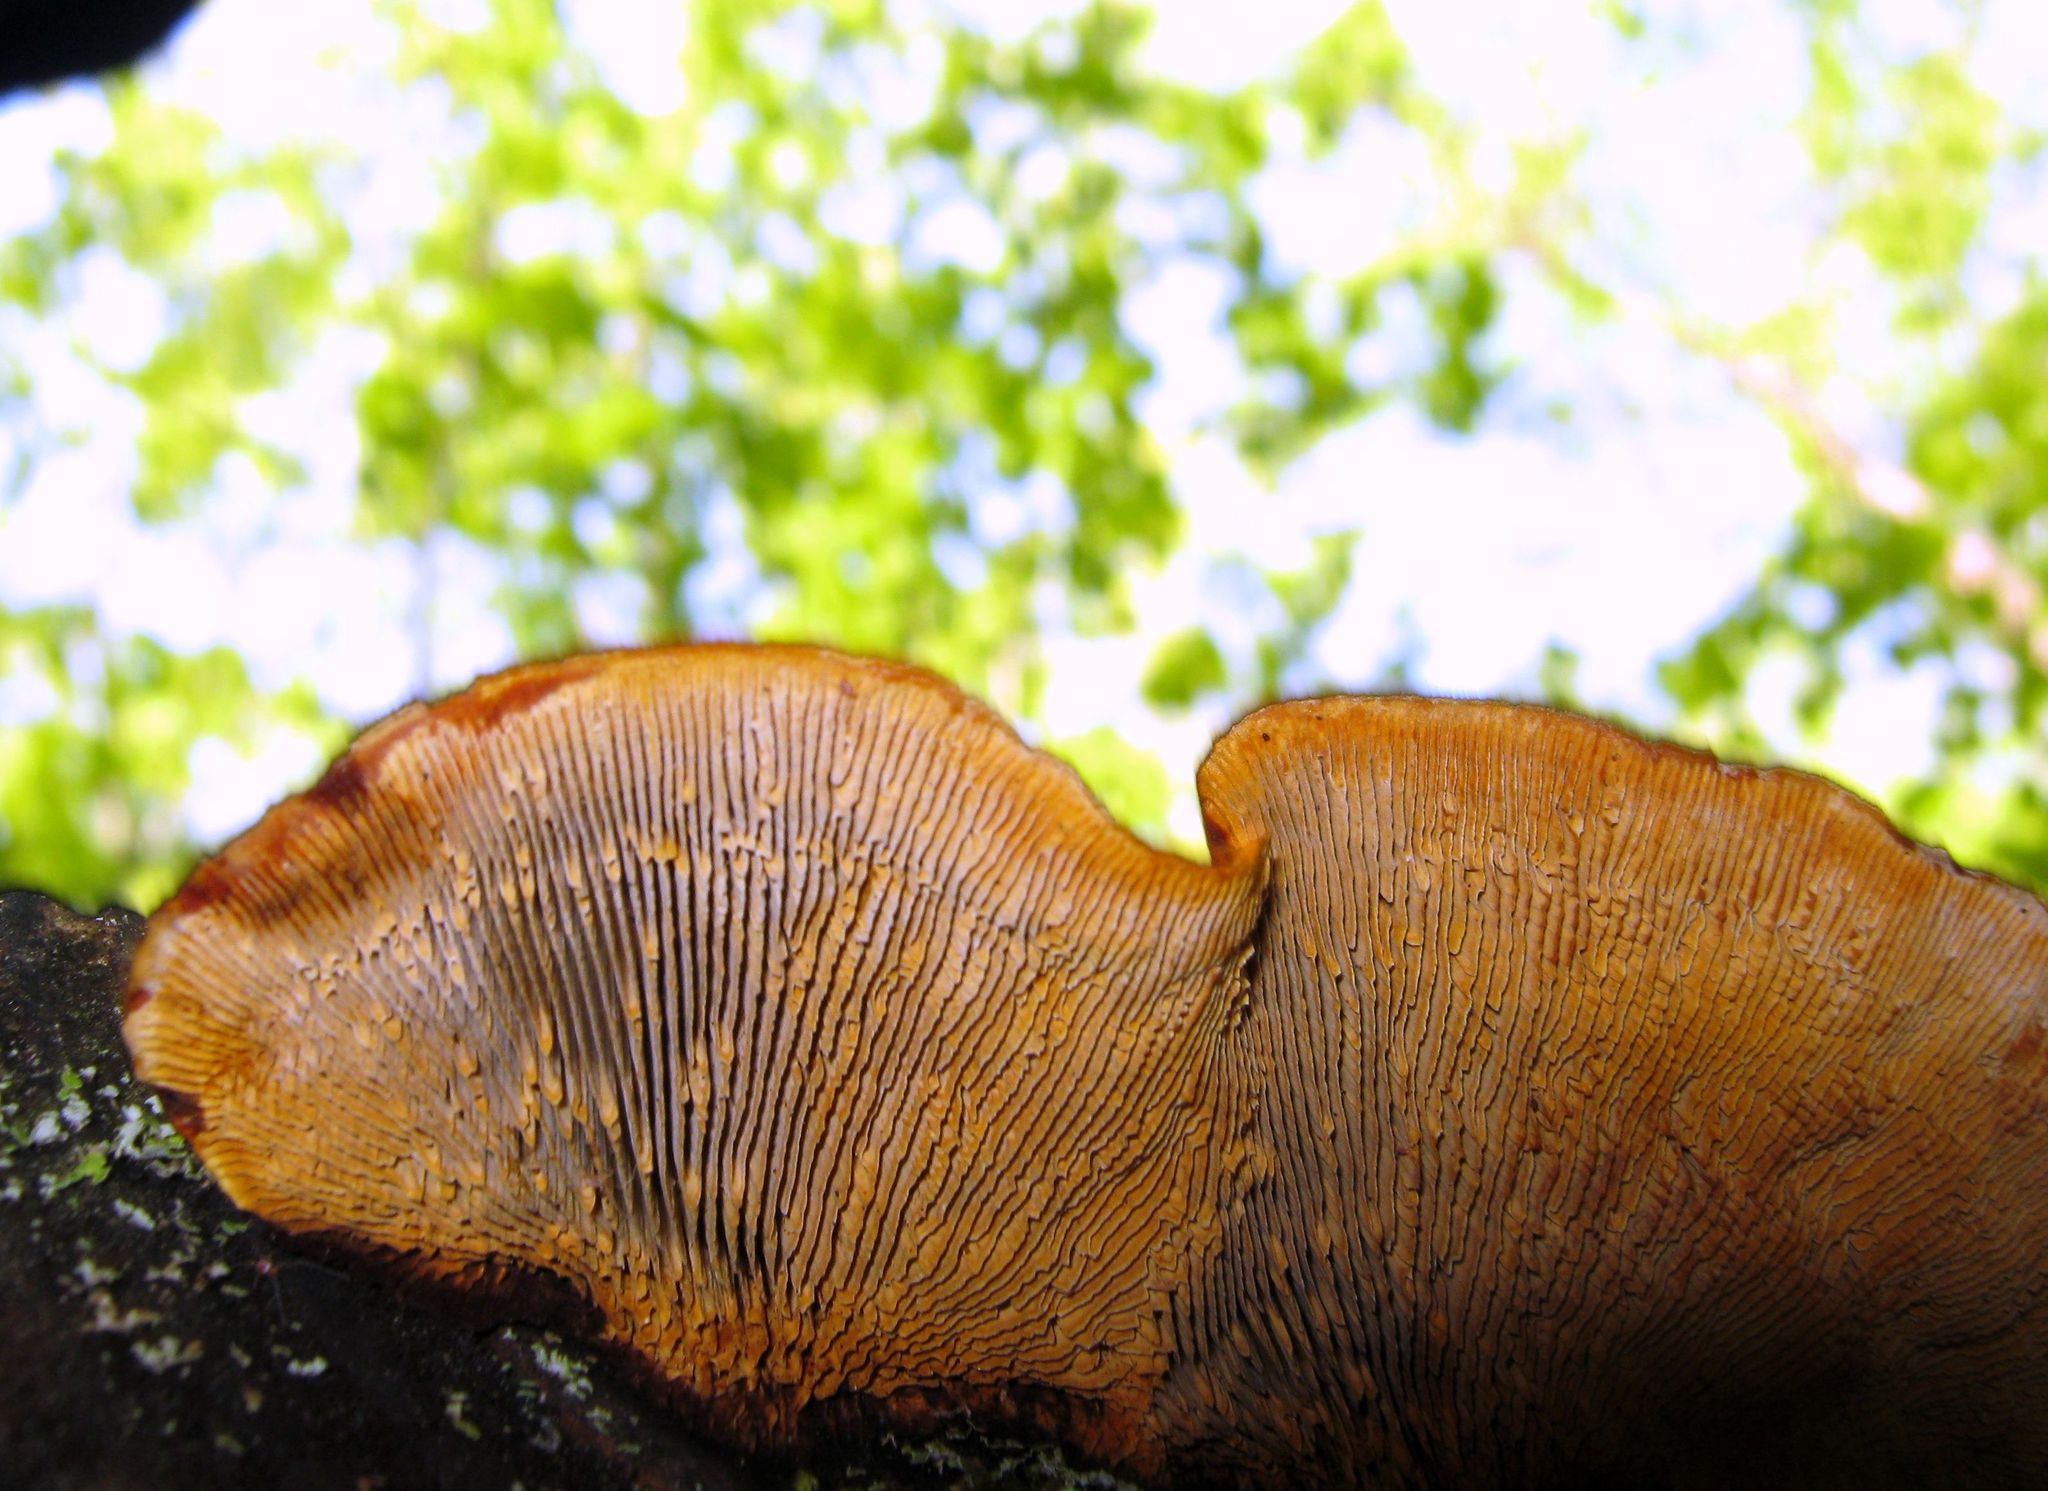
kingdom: Fungi
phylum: Basidiomycota
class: Agaricomycetes
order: Gloeophyllales
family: Gloeophyllaceae
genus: Gloeophyllum
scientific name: Gloeophyllum sepiarium
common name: Conifer mazegill
